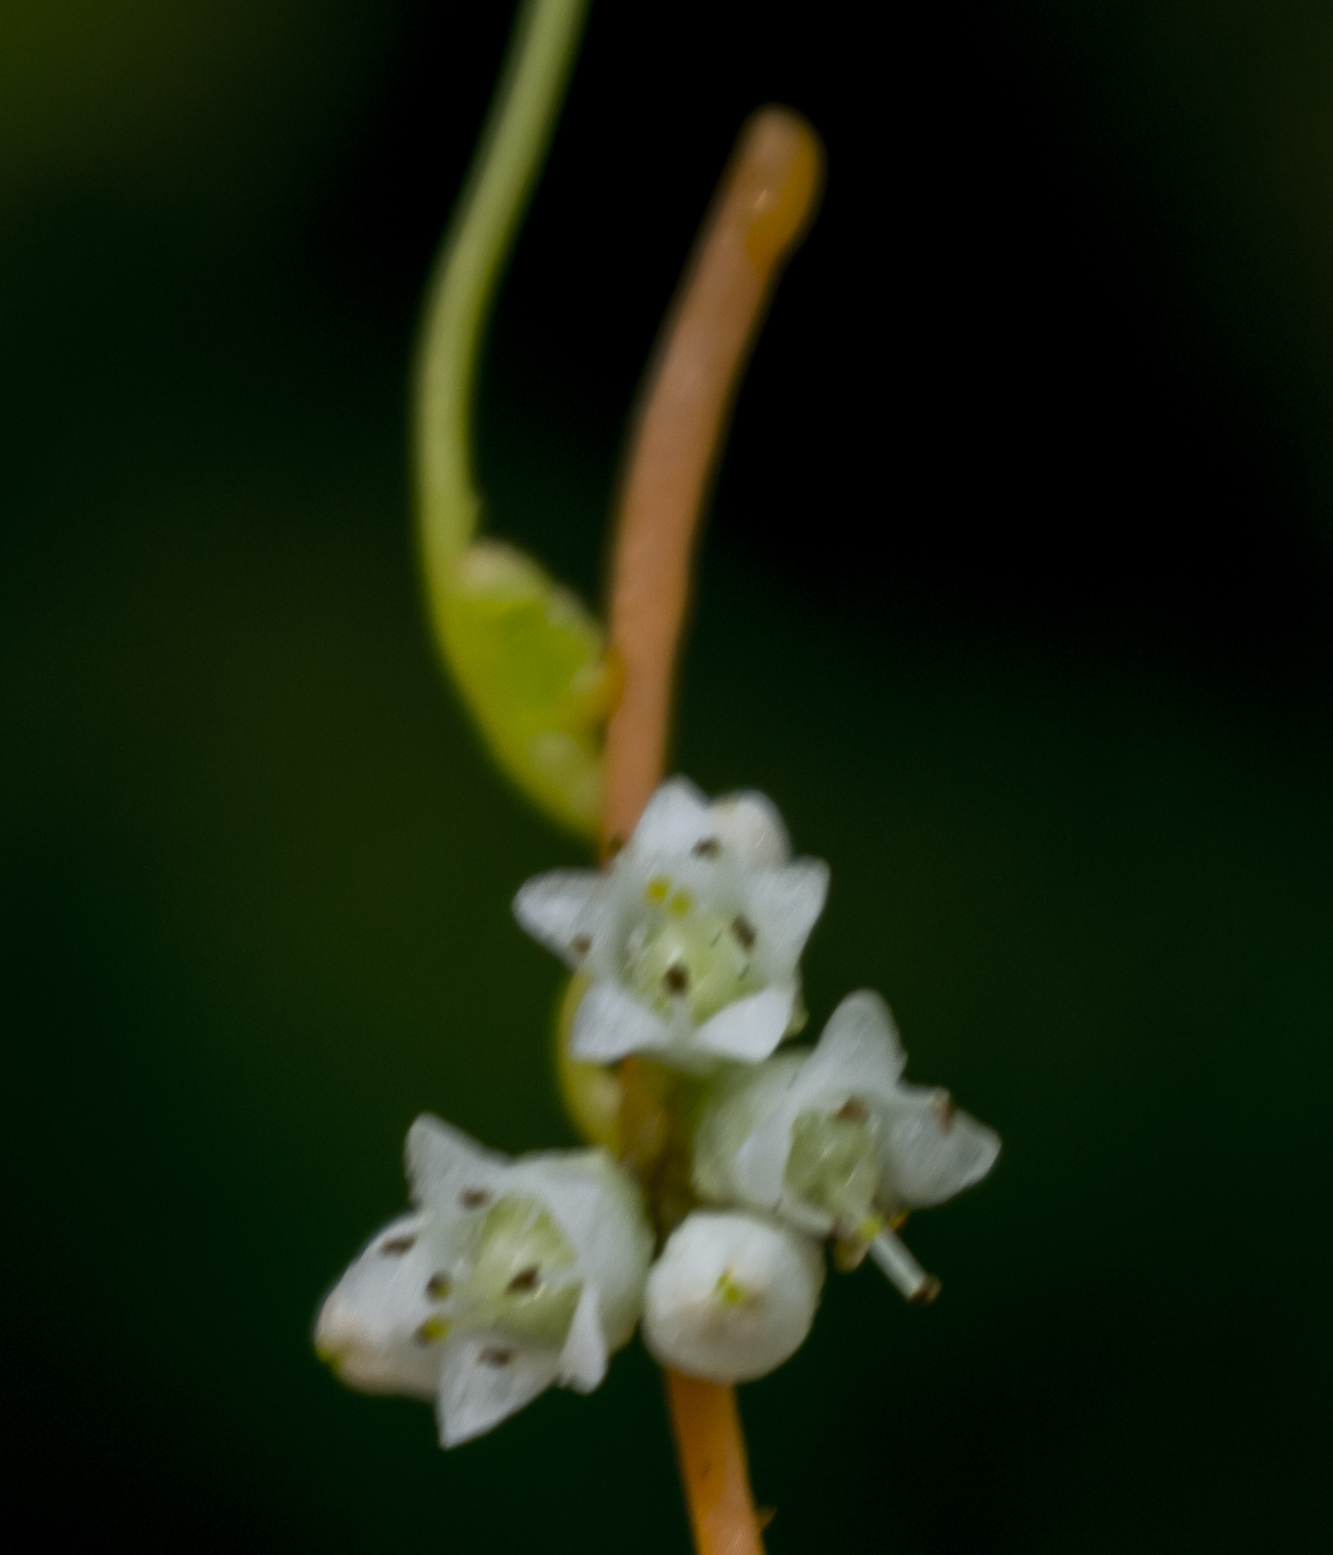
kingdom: Plantae
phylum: Tracheophyta
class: Magnoliopsida
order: Solanales
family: Convolvulaceae
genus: Cuscuta
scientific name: Cuscuta gronovii
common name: Common dodder
